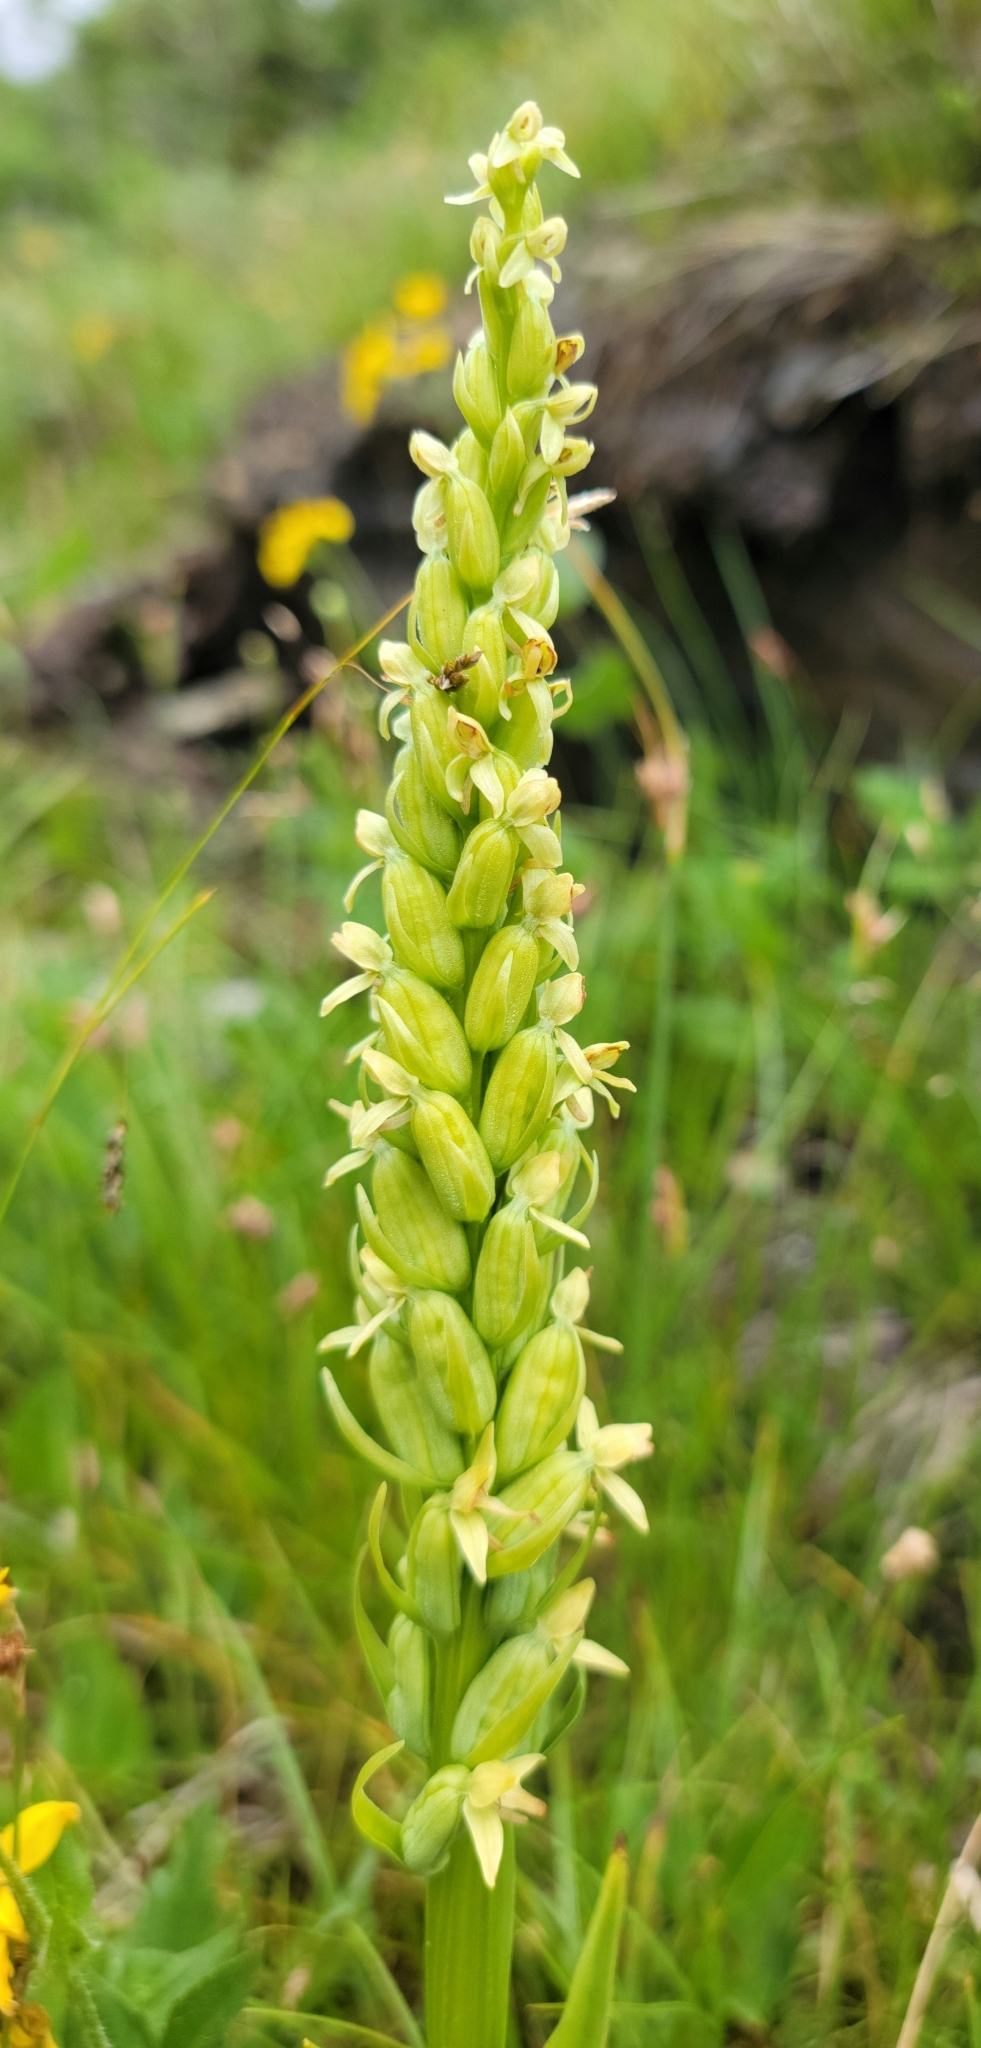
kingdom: Plantae
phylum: Tracheophyta
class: Liliopsida
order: Asparagales
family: Orchidaceae
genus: Platanthera
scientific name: Platanthera huronensis
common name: Fragrant green orchid
